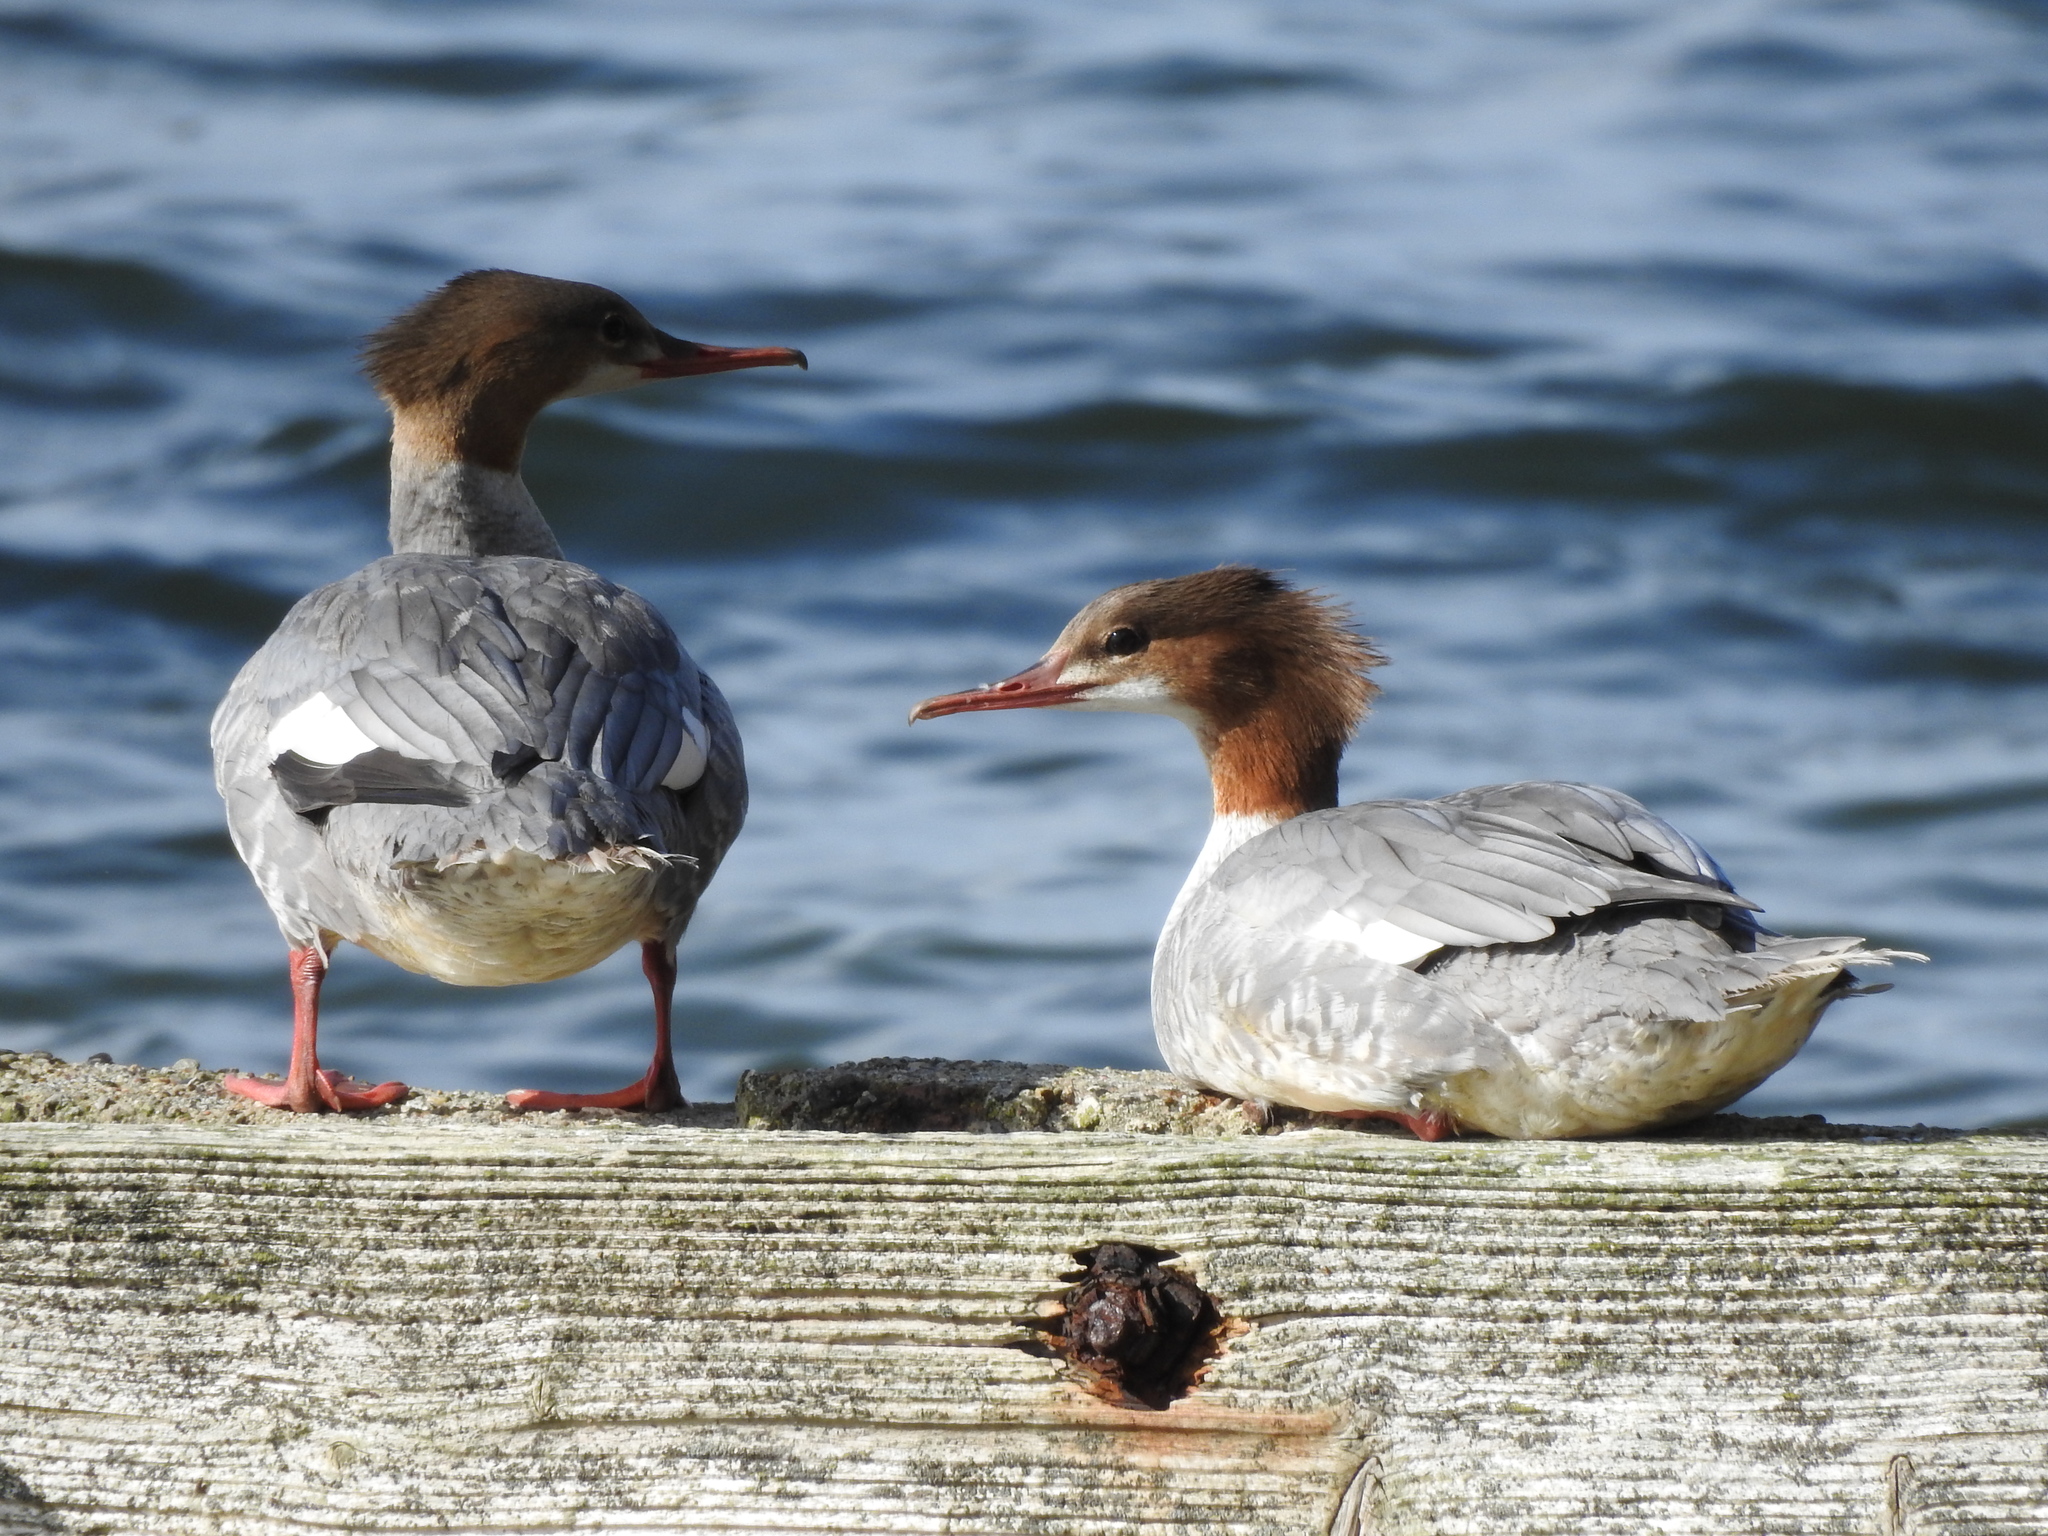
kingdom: Animalia
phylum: Chordata
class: Aves
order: Anseriformes
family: Anatidae
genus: Mergus
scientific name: Mergus merganser
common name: Common merganser
